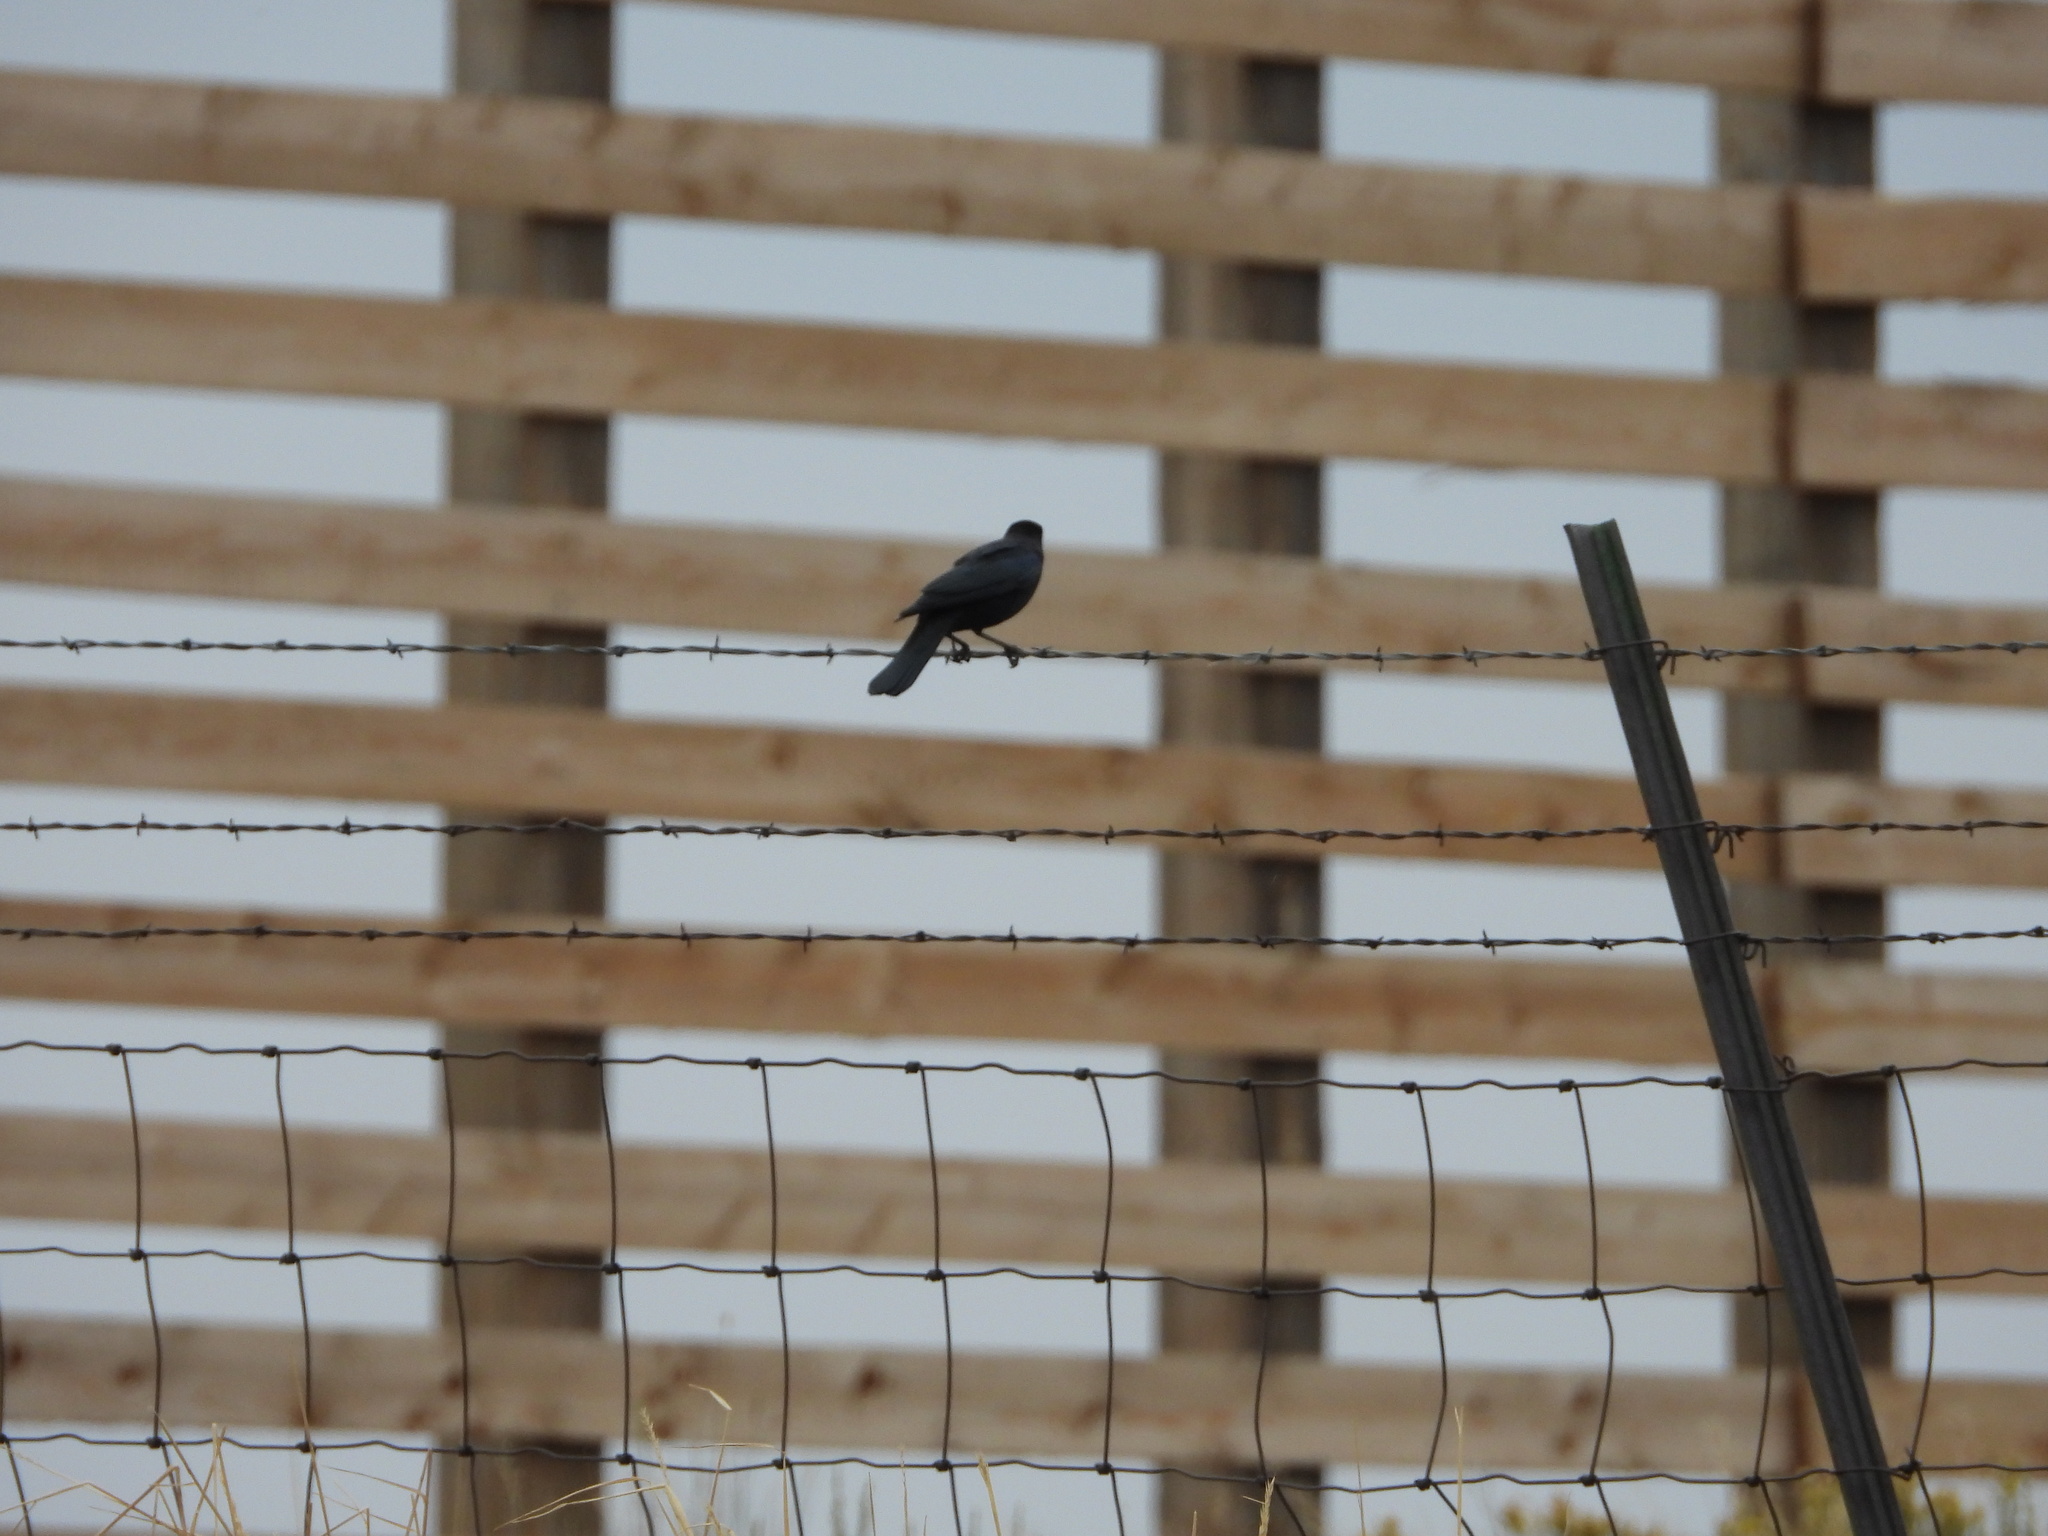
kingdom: Animalia
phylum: Chordata
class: Aves
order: Passeriformes
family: Icteridae
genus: Euphagus
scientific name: Euphagus cyanocephalus
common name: Brewer's blackbird
